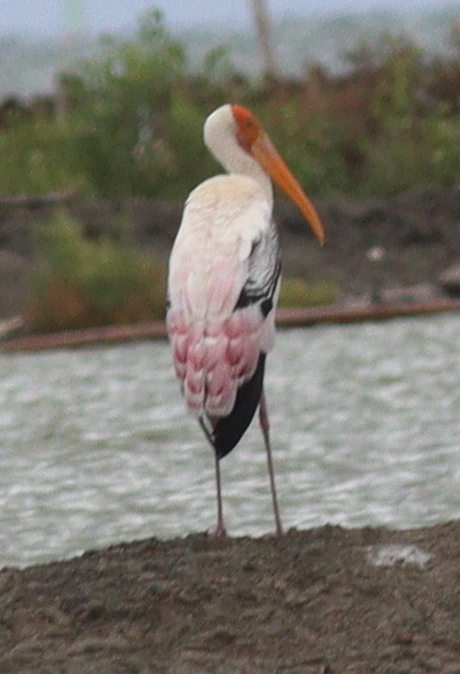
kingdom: Animalia
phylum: Chordata
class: Aves
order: Ciconiiformes
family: Ciconiidae
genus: Mycteria
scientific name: Mycteria leucocephala
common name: Painted stork
